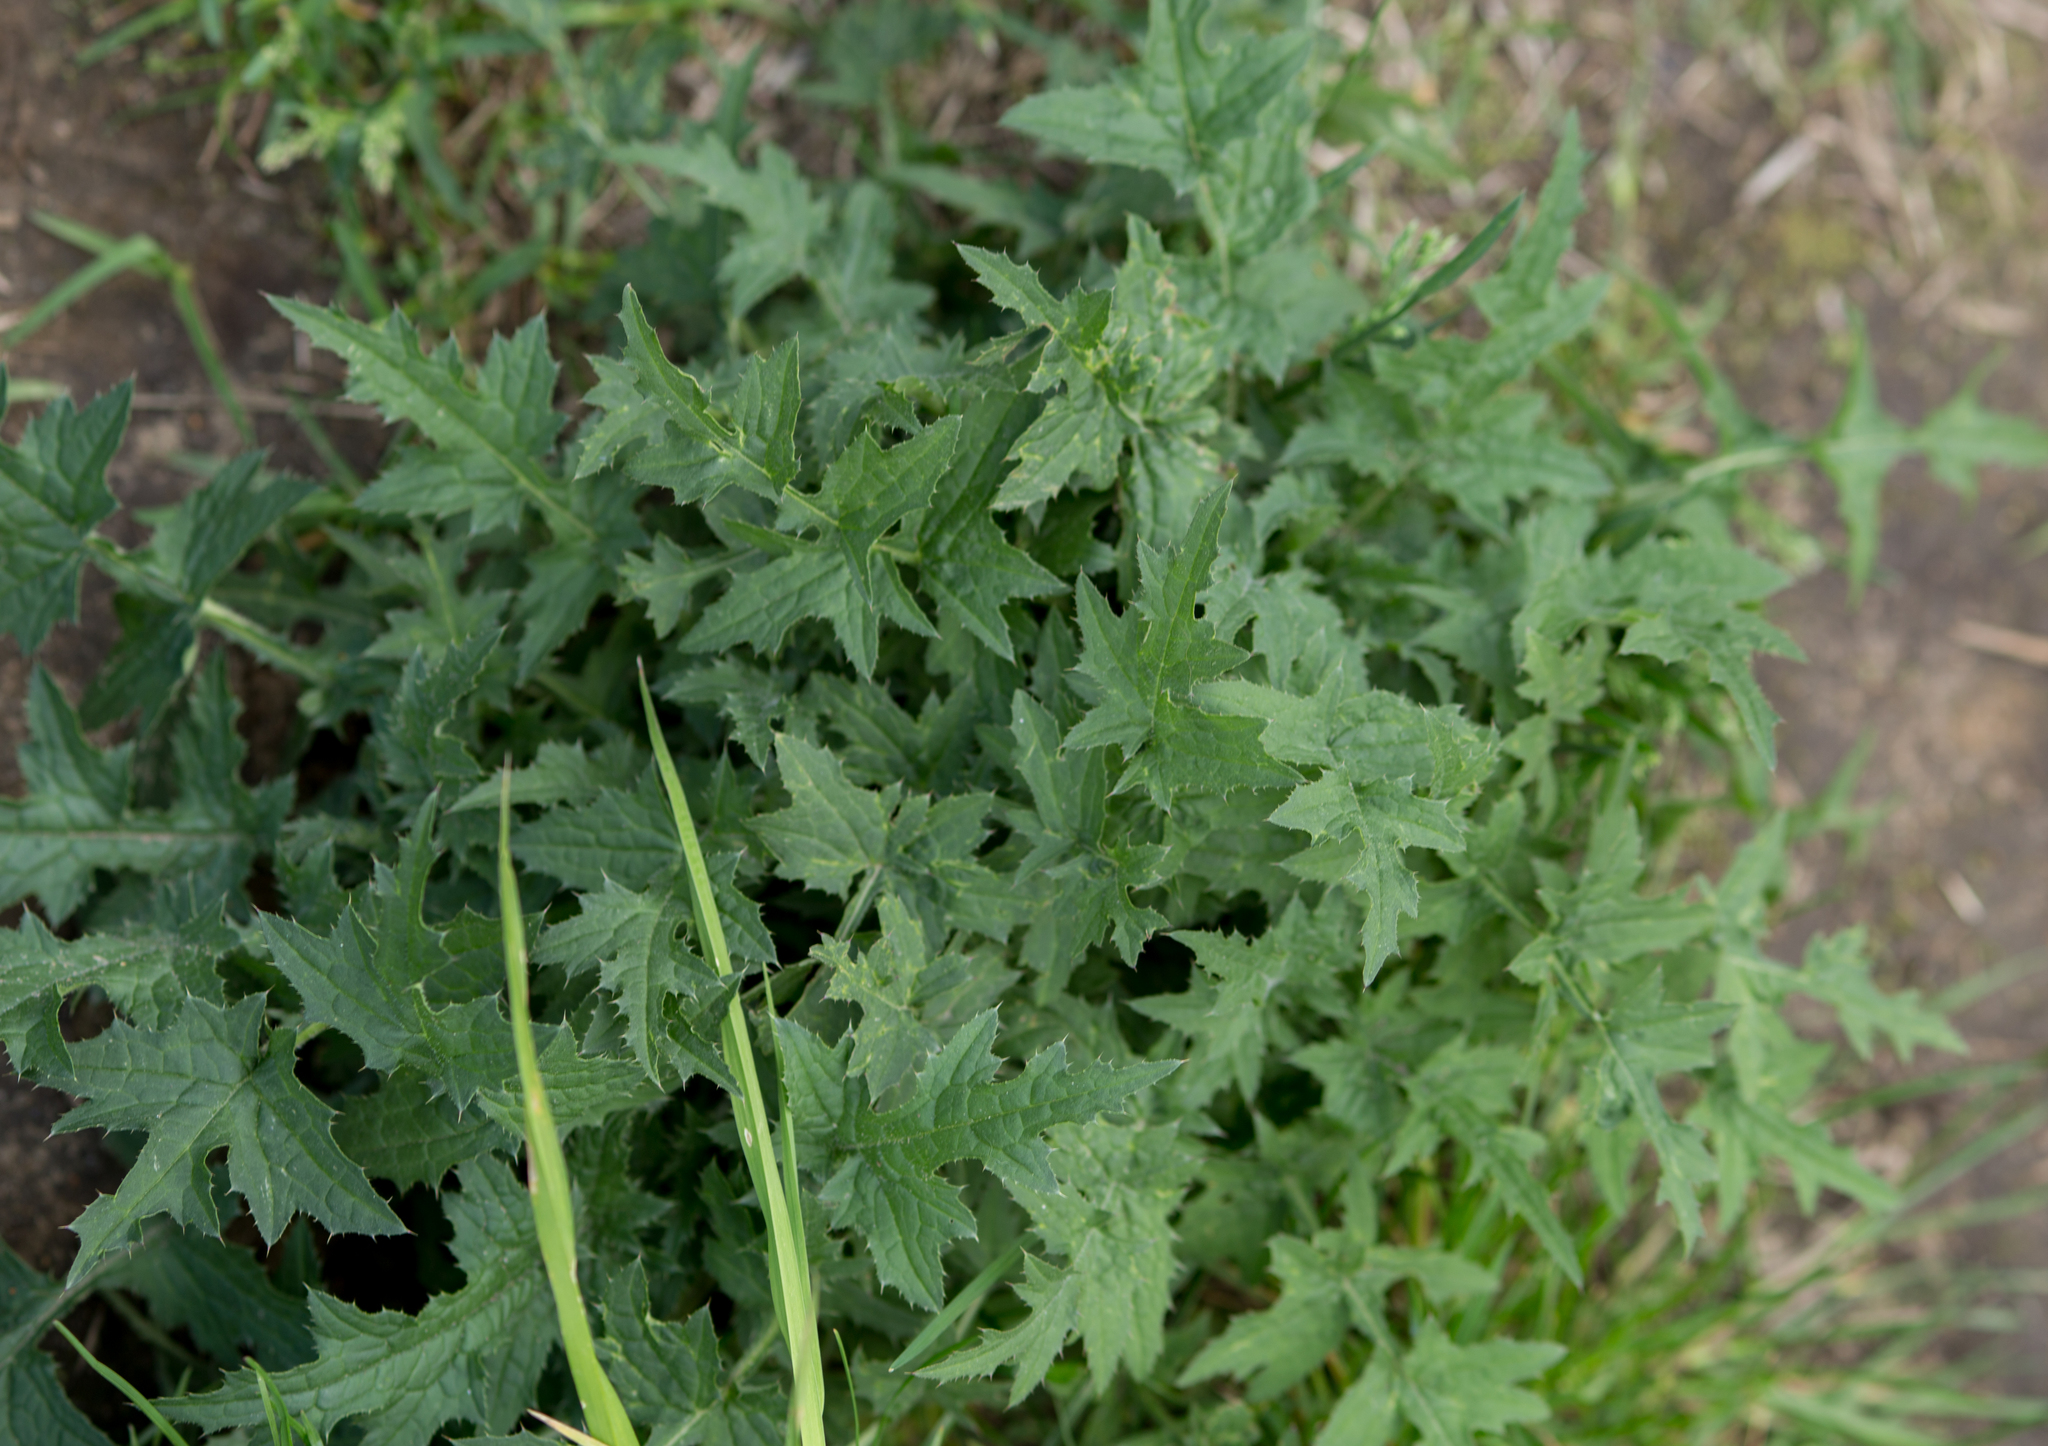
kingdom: Plantae
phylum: Tracheophyta
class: Magnoliopsida
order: Asterales
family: Asteraceae
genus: Carduus
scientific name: Carduus crispus
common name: Welted thistle
